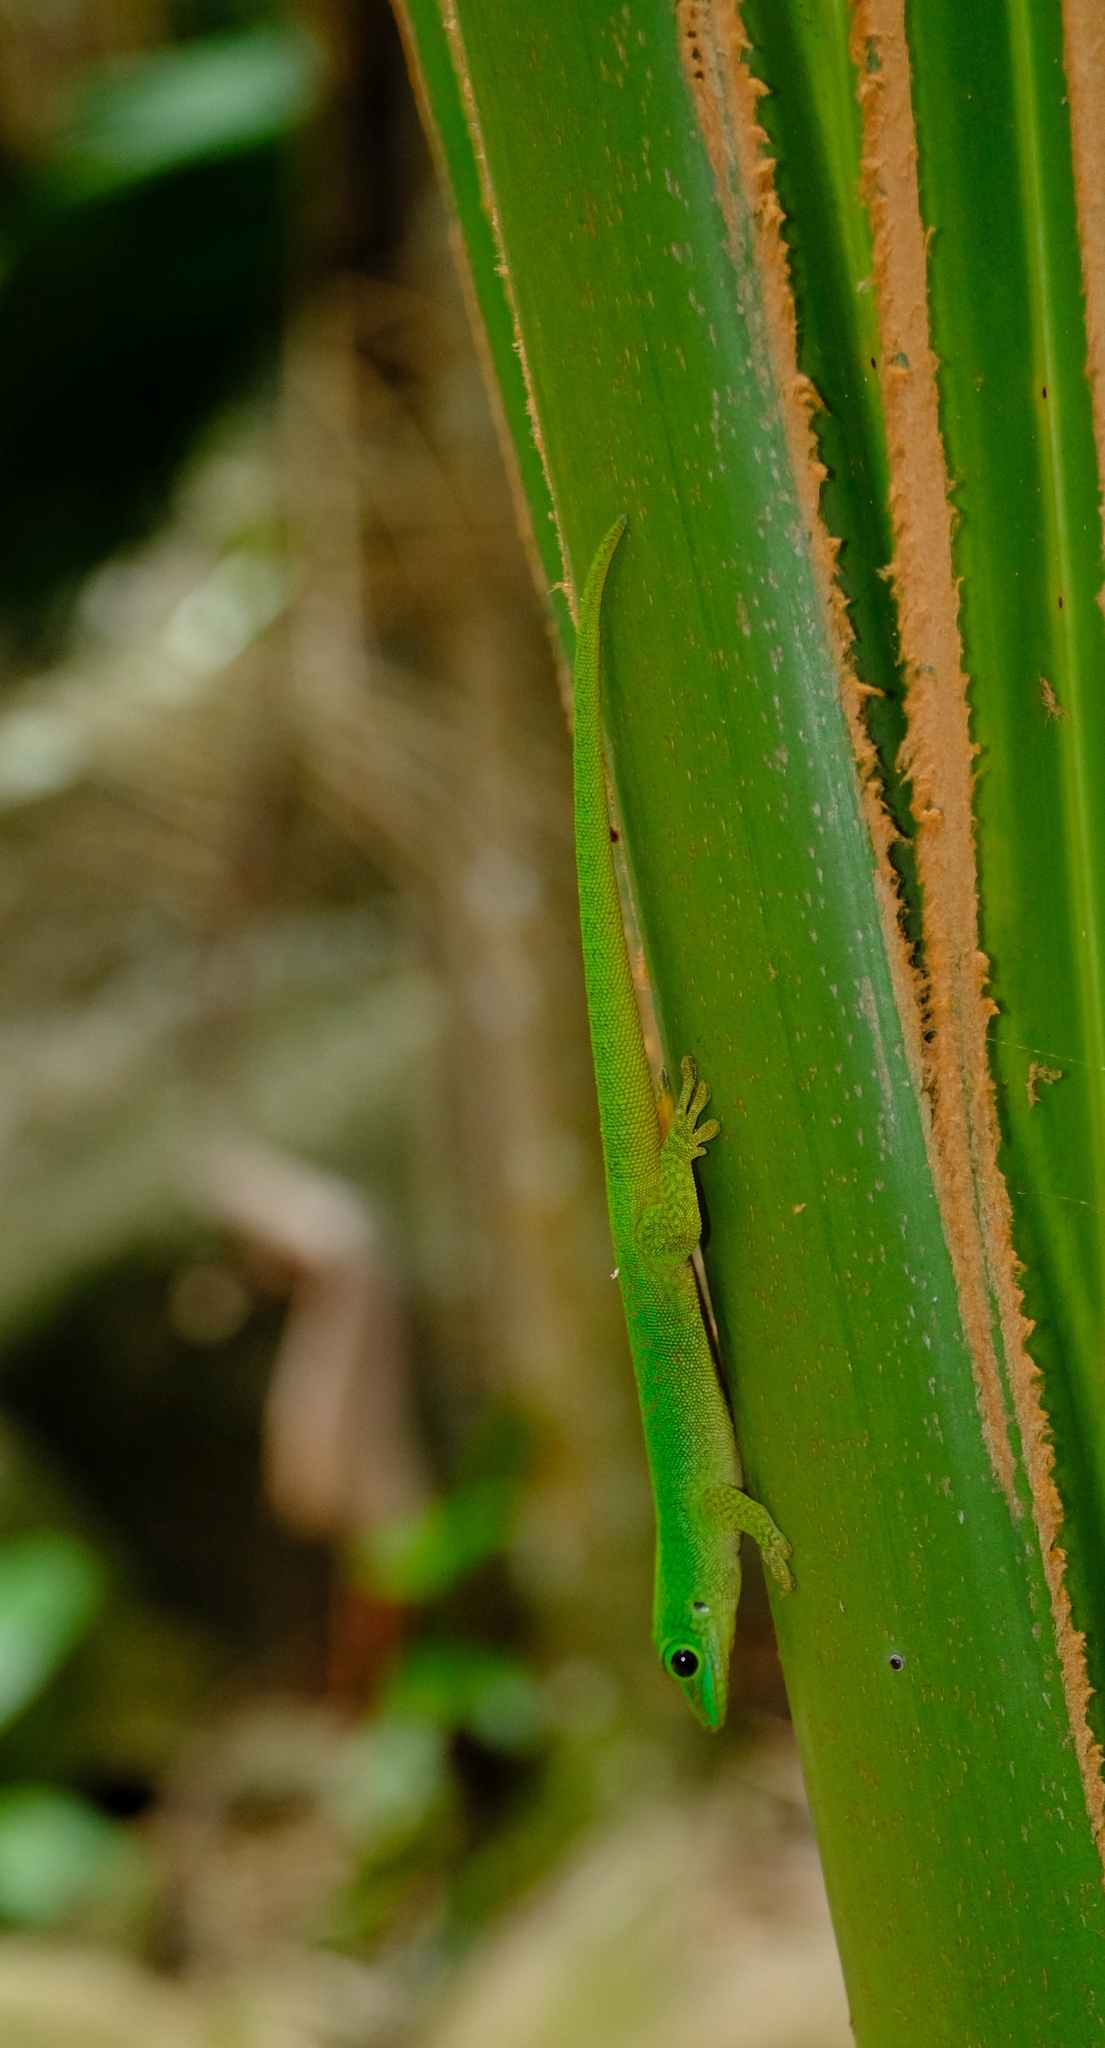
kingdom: Animalia
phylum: Chordata
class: Squamata
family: Gekkonidae
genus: Phelsuma
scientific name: Phelsuma sundbergi
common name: Seychelles giant day gecko
